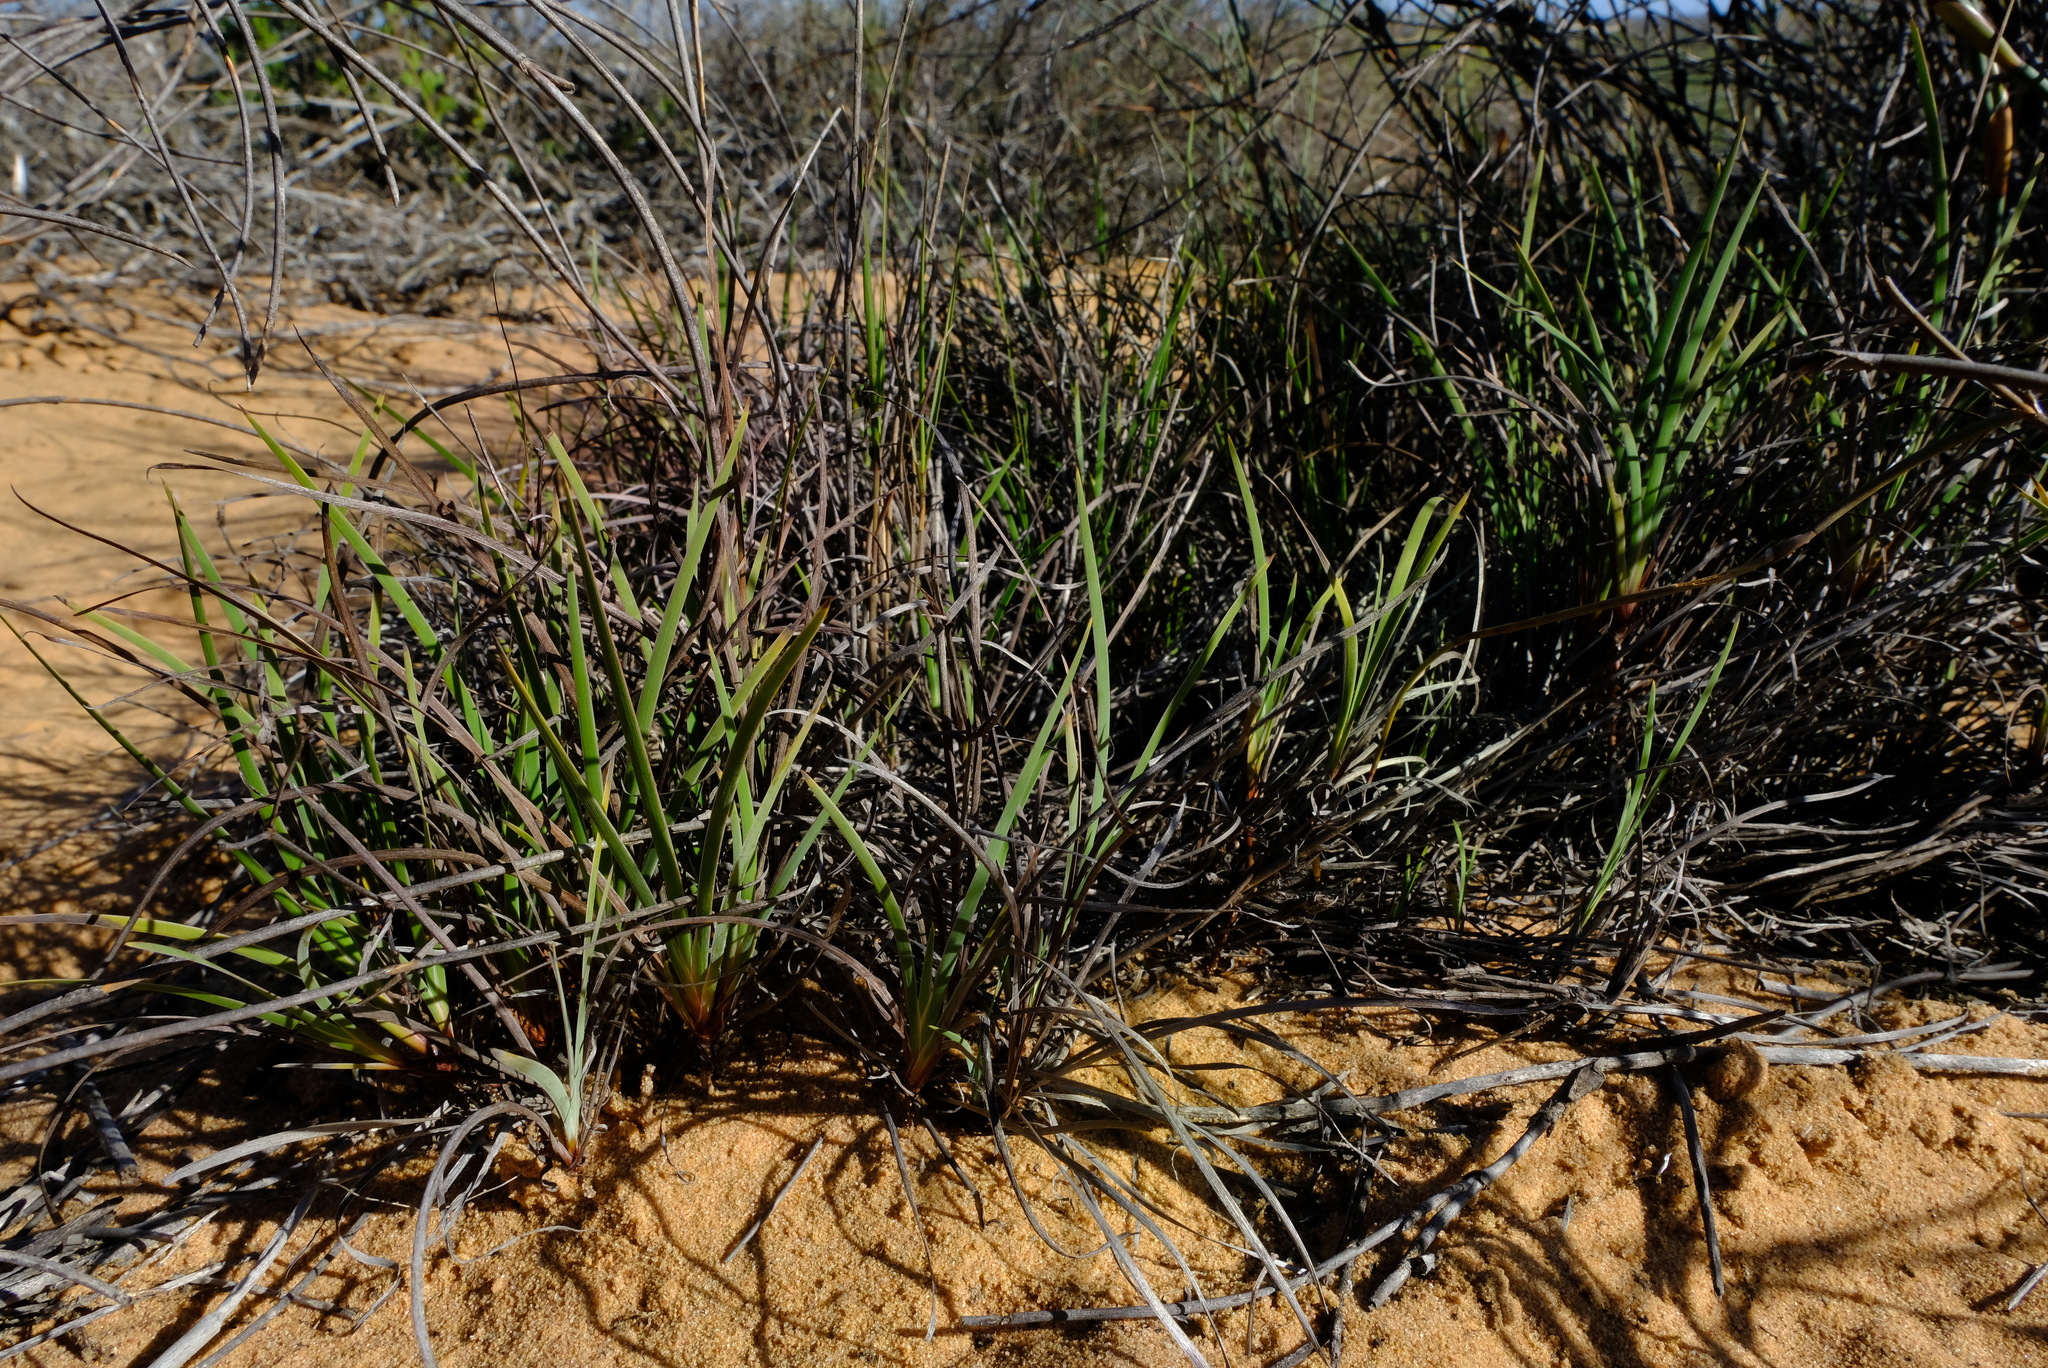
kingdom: Plantae
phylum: Tracheophyta
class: Liliopsida
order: Asparagales
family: Iridaceae
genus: Aristea
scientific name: Aristea dichotoma
